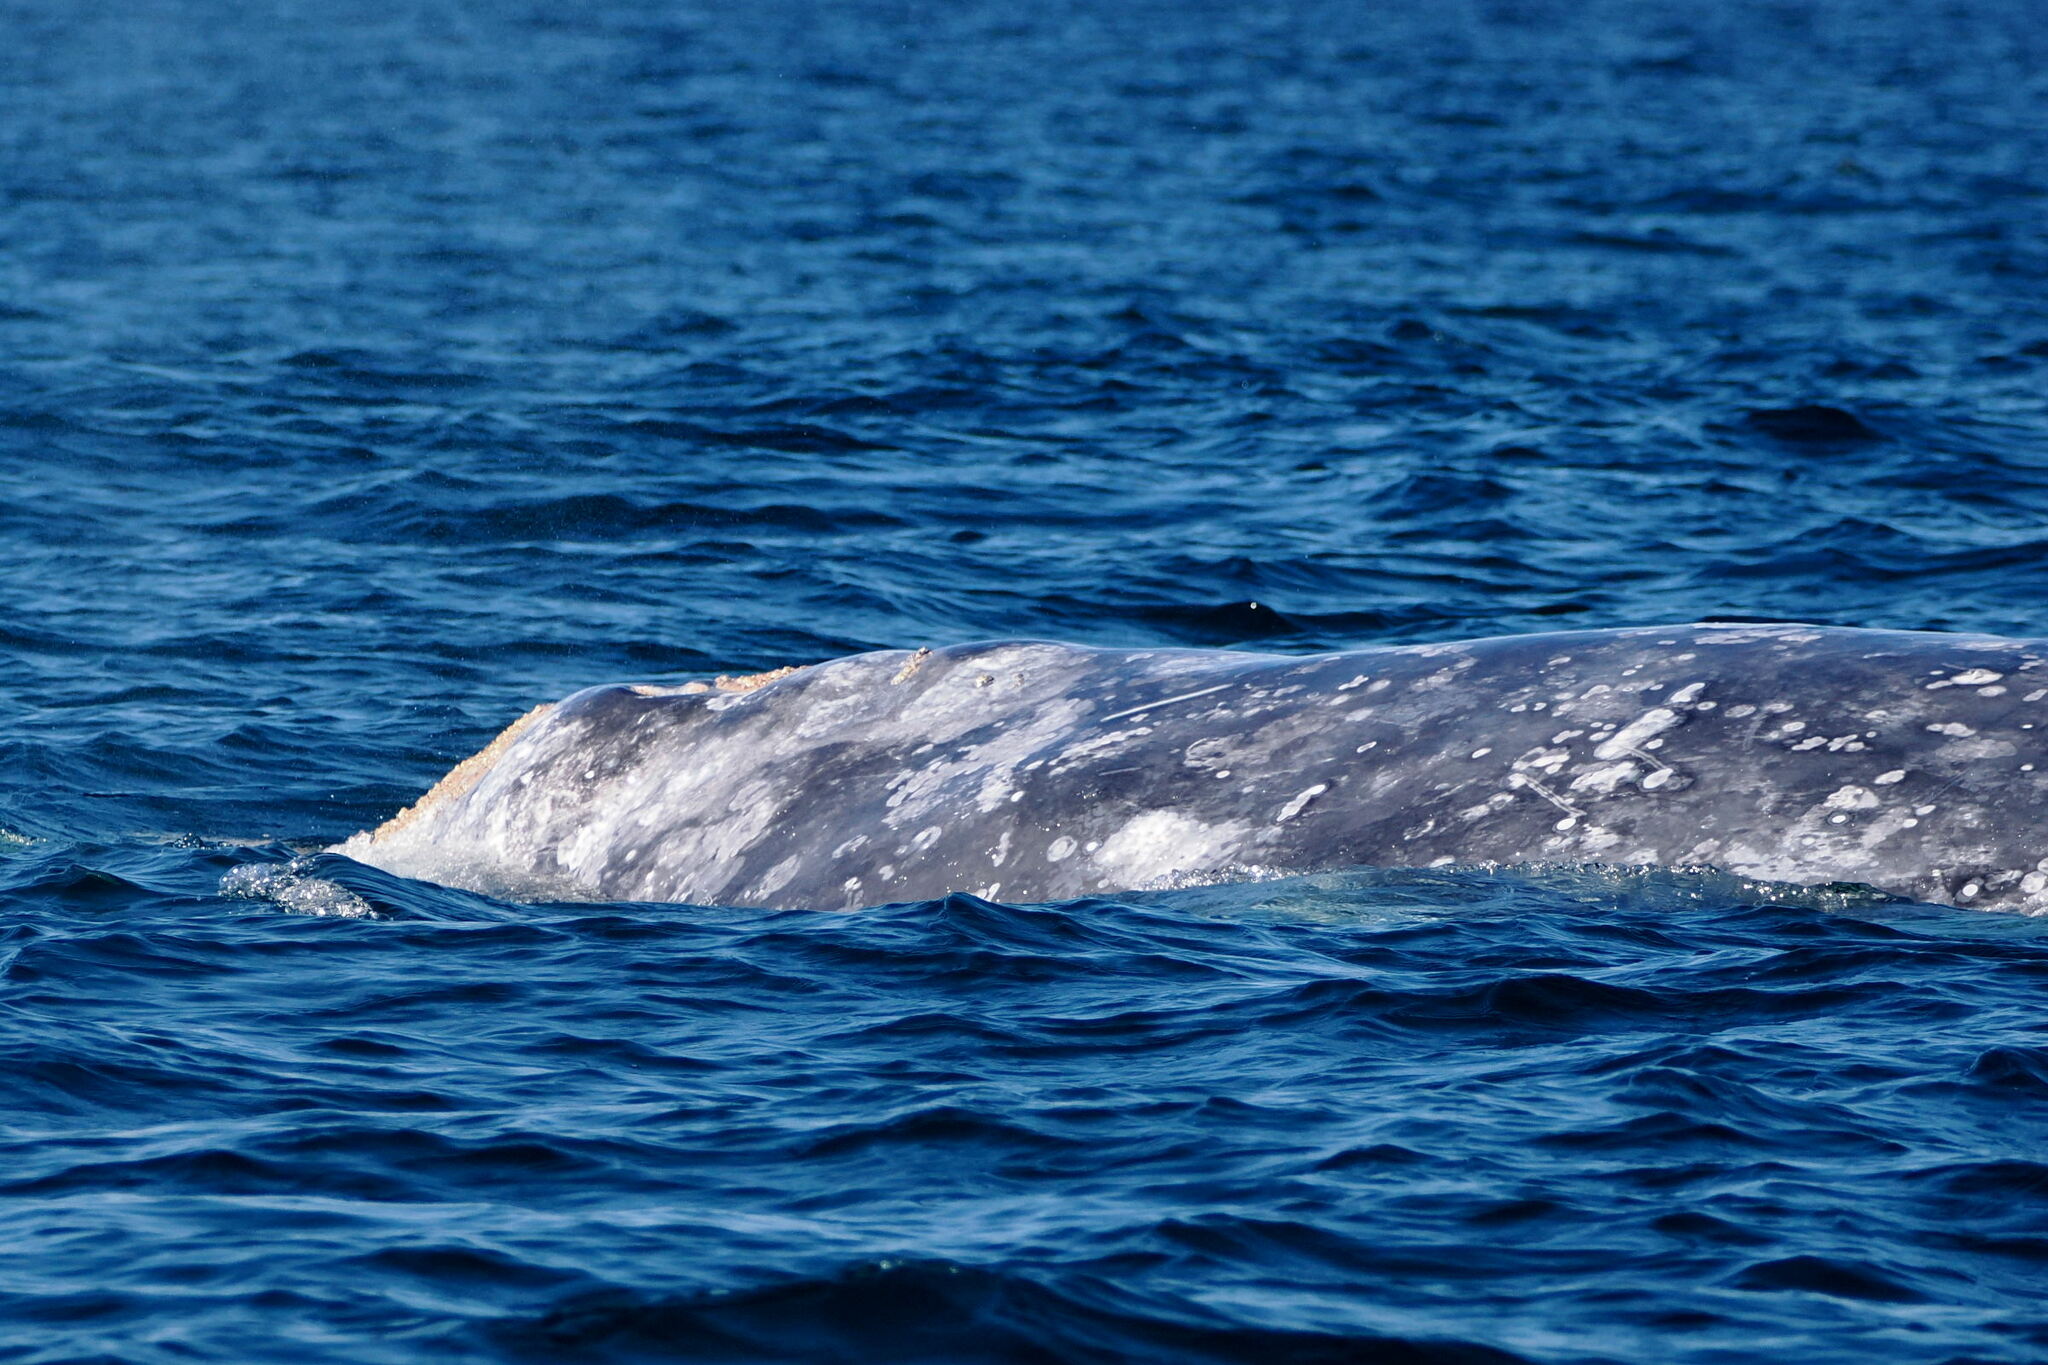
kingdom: Animalia
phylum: Chordata
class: Mammalia
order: Cetacea
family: Eschrichtiidae
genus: Eschrichtius
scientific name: Eschrichtius robustus
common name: Gray whale
